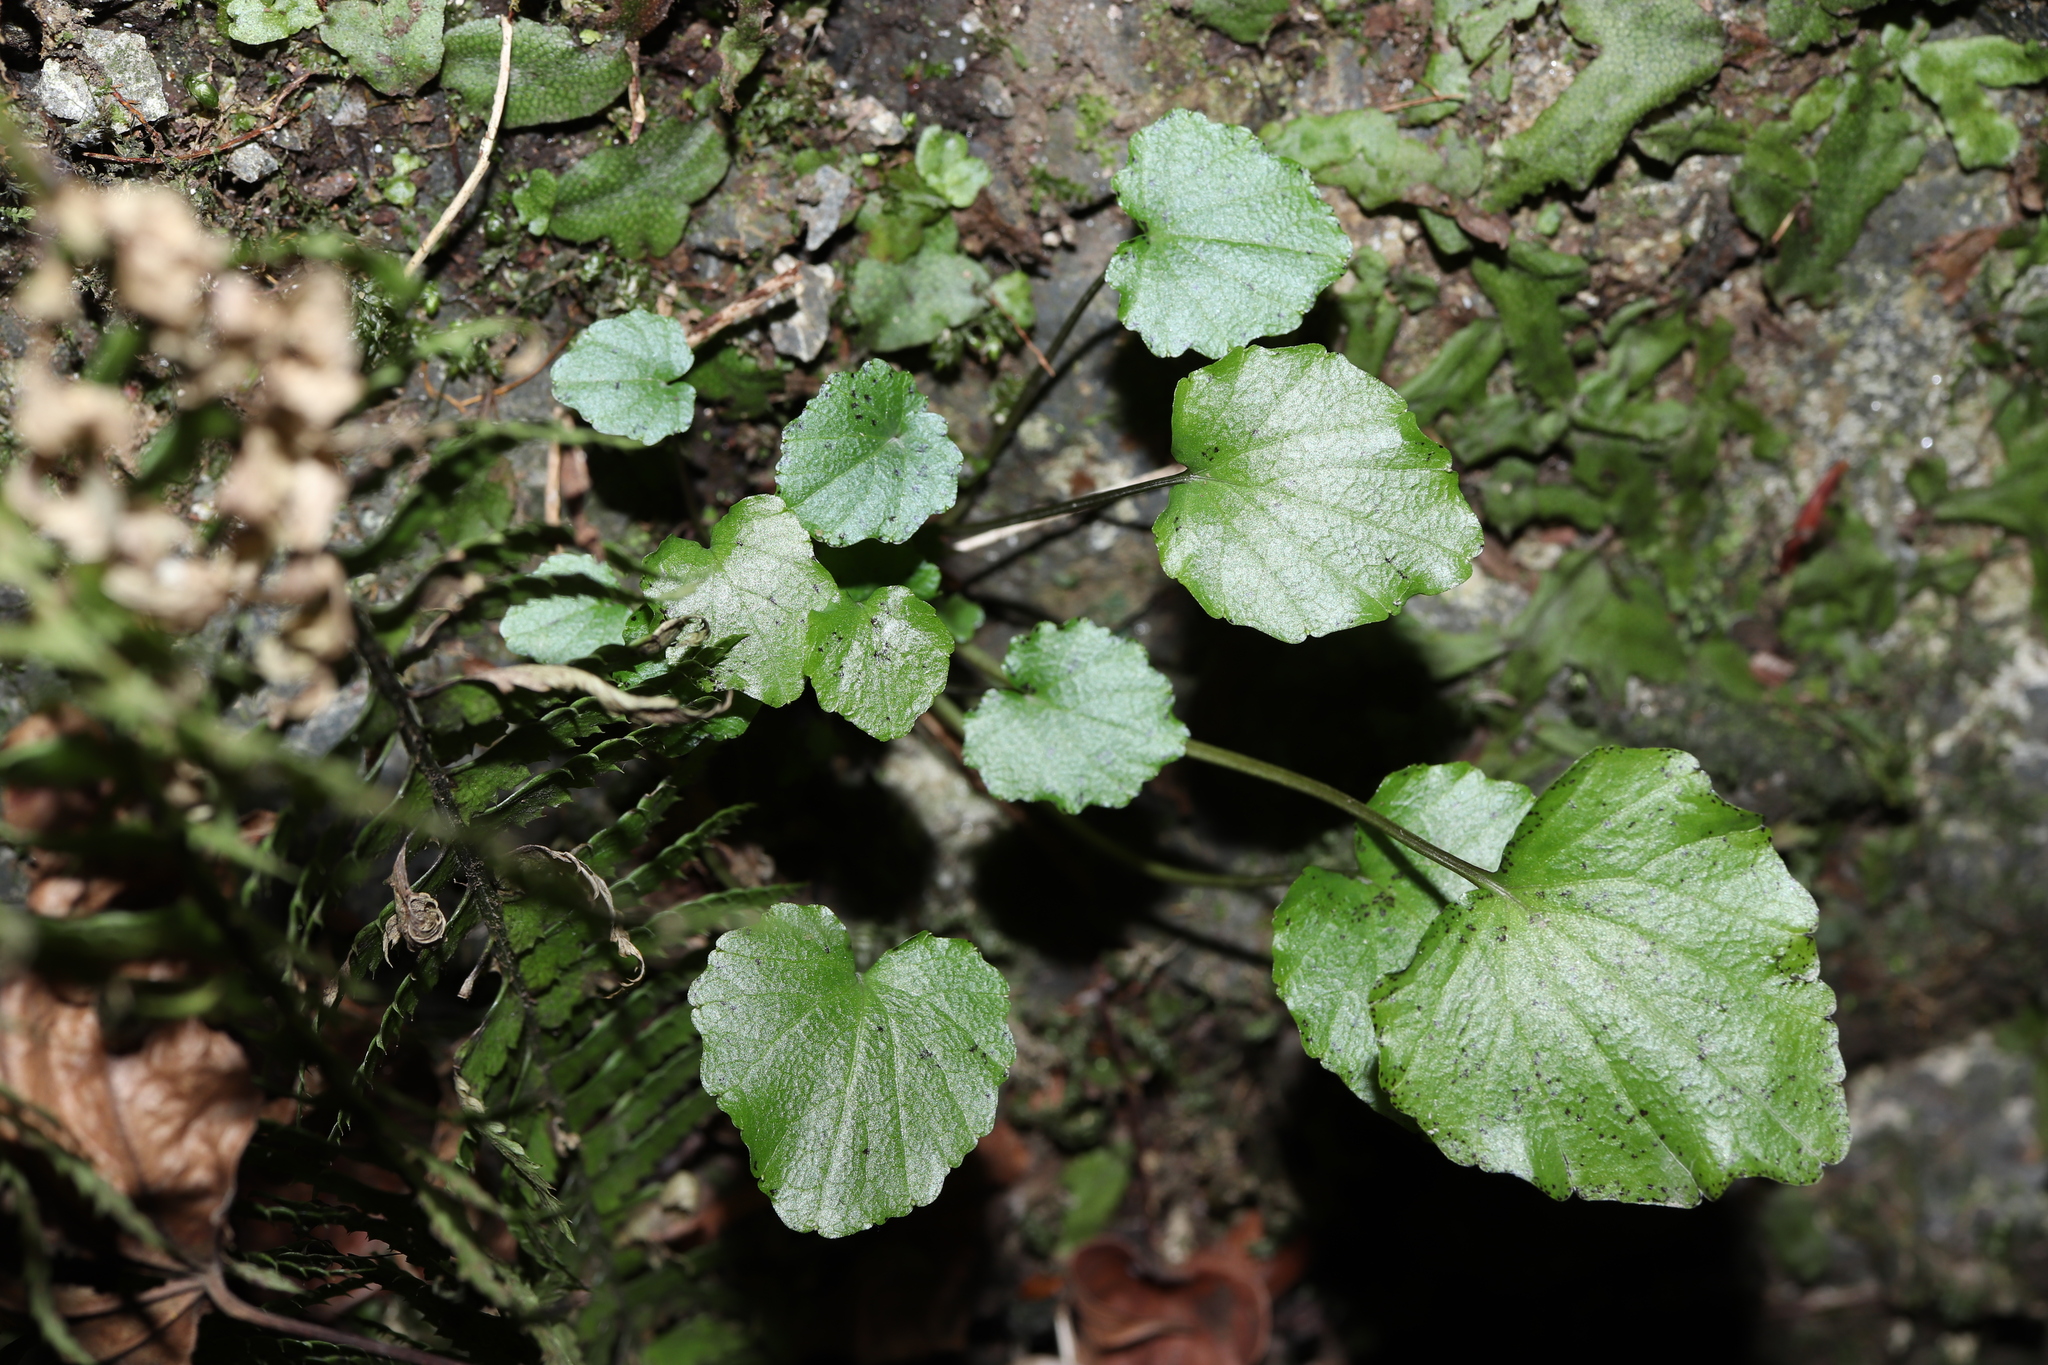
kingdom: Plantae
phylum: Tracheophyta
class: Magnoliopsida
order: Brassicales
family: Brassicaceae
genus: Eutrema
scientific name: Eutrema tenue
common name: Lesser wasabi
